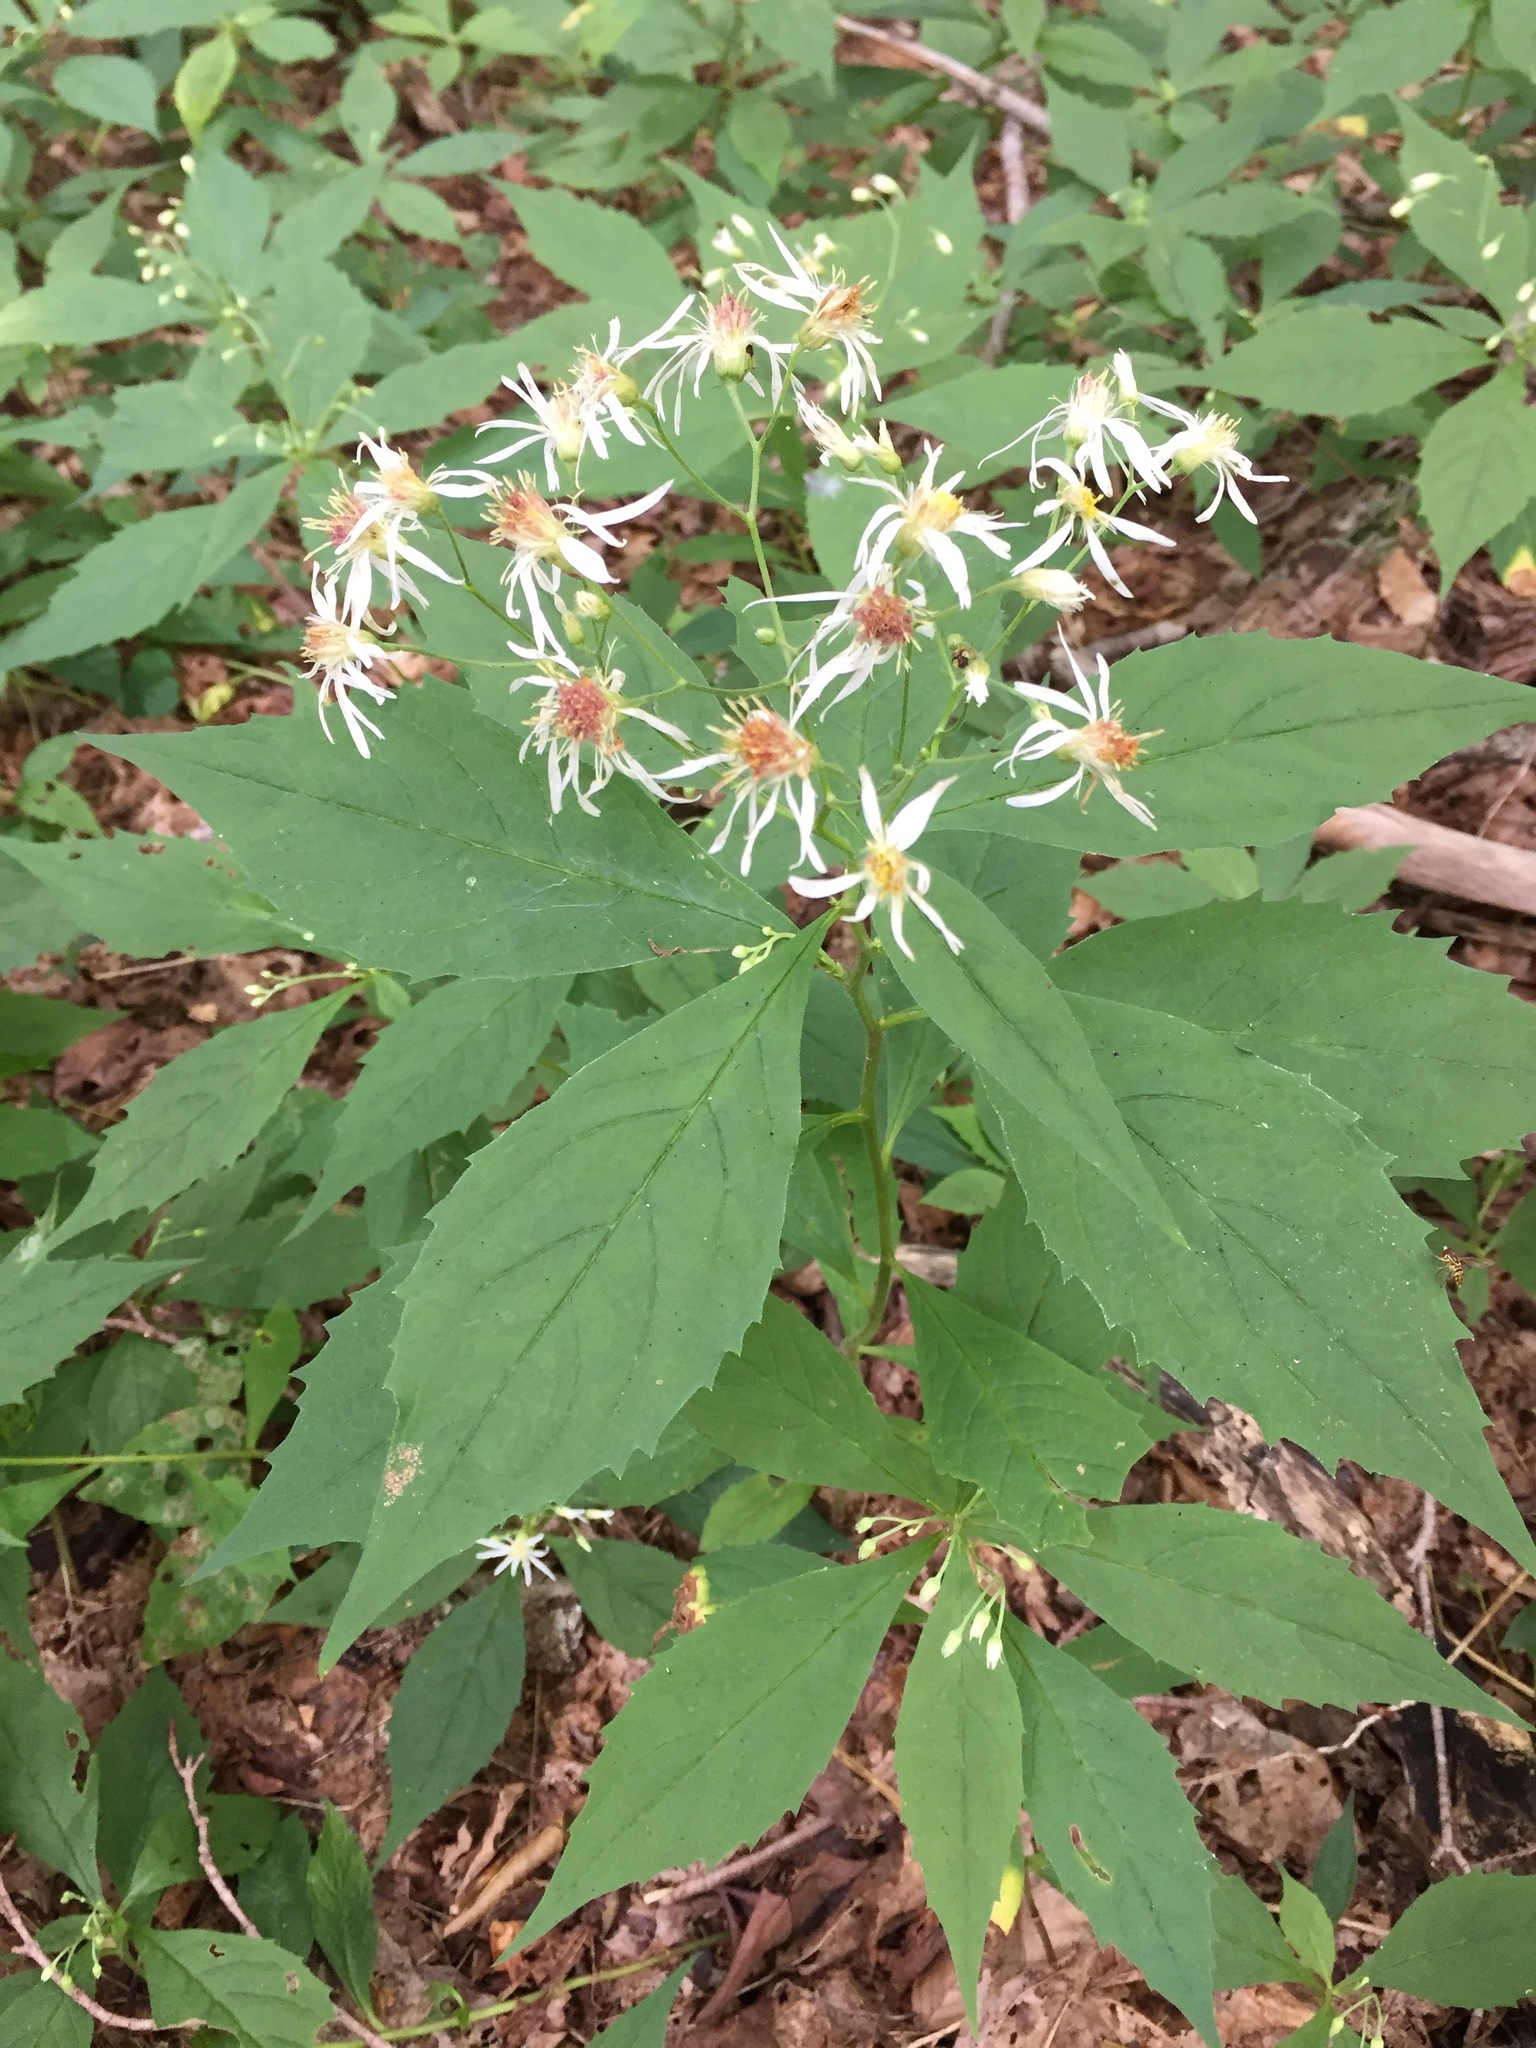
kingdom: Plantae
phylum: Tracheophyta
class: Magnoliopsida
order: Asterales
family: Asteraceae
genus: Oclemena
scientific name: Oclemena acuminata
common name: Mountain aster
